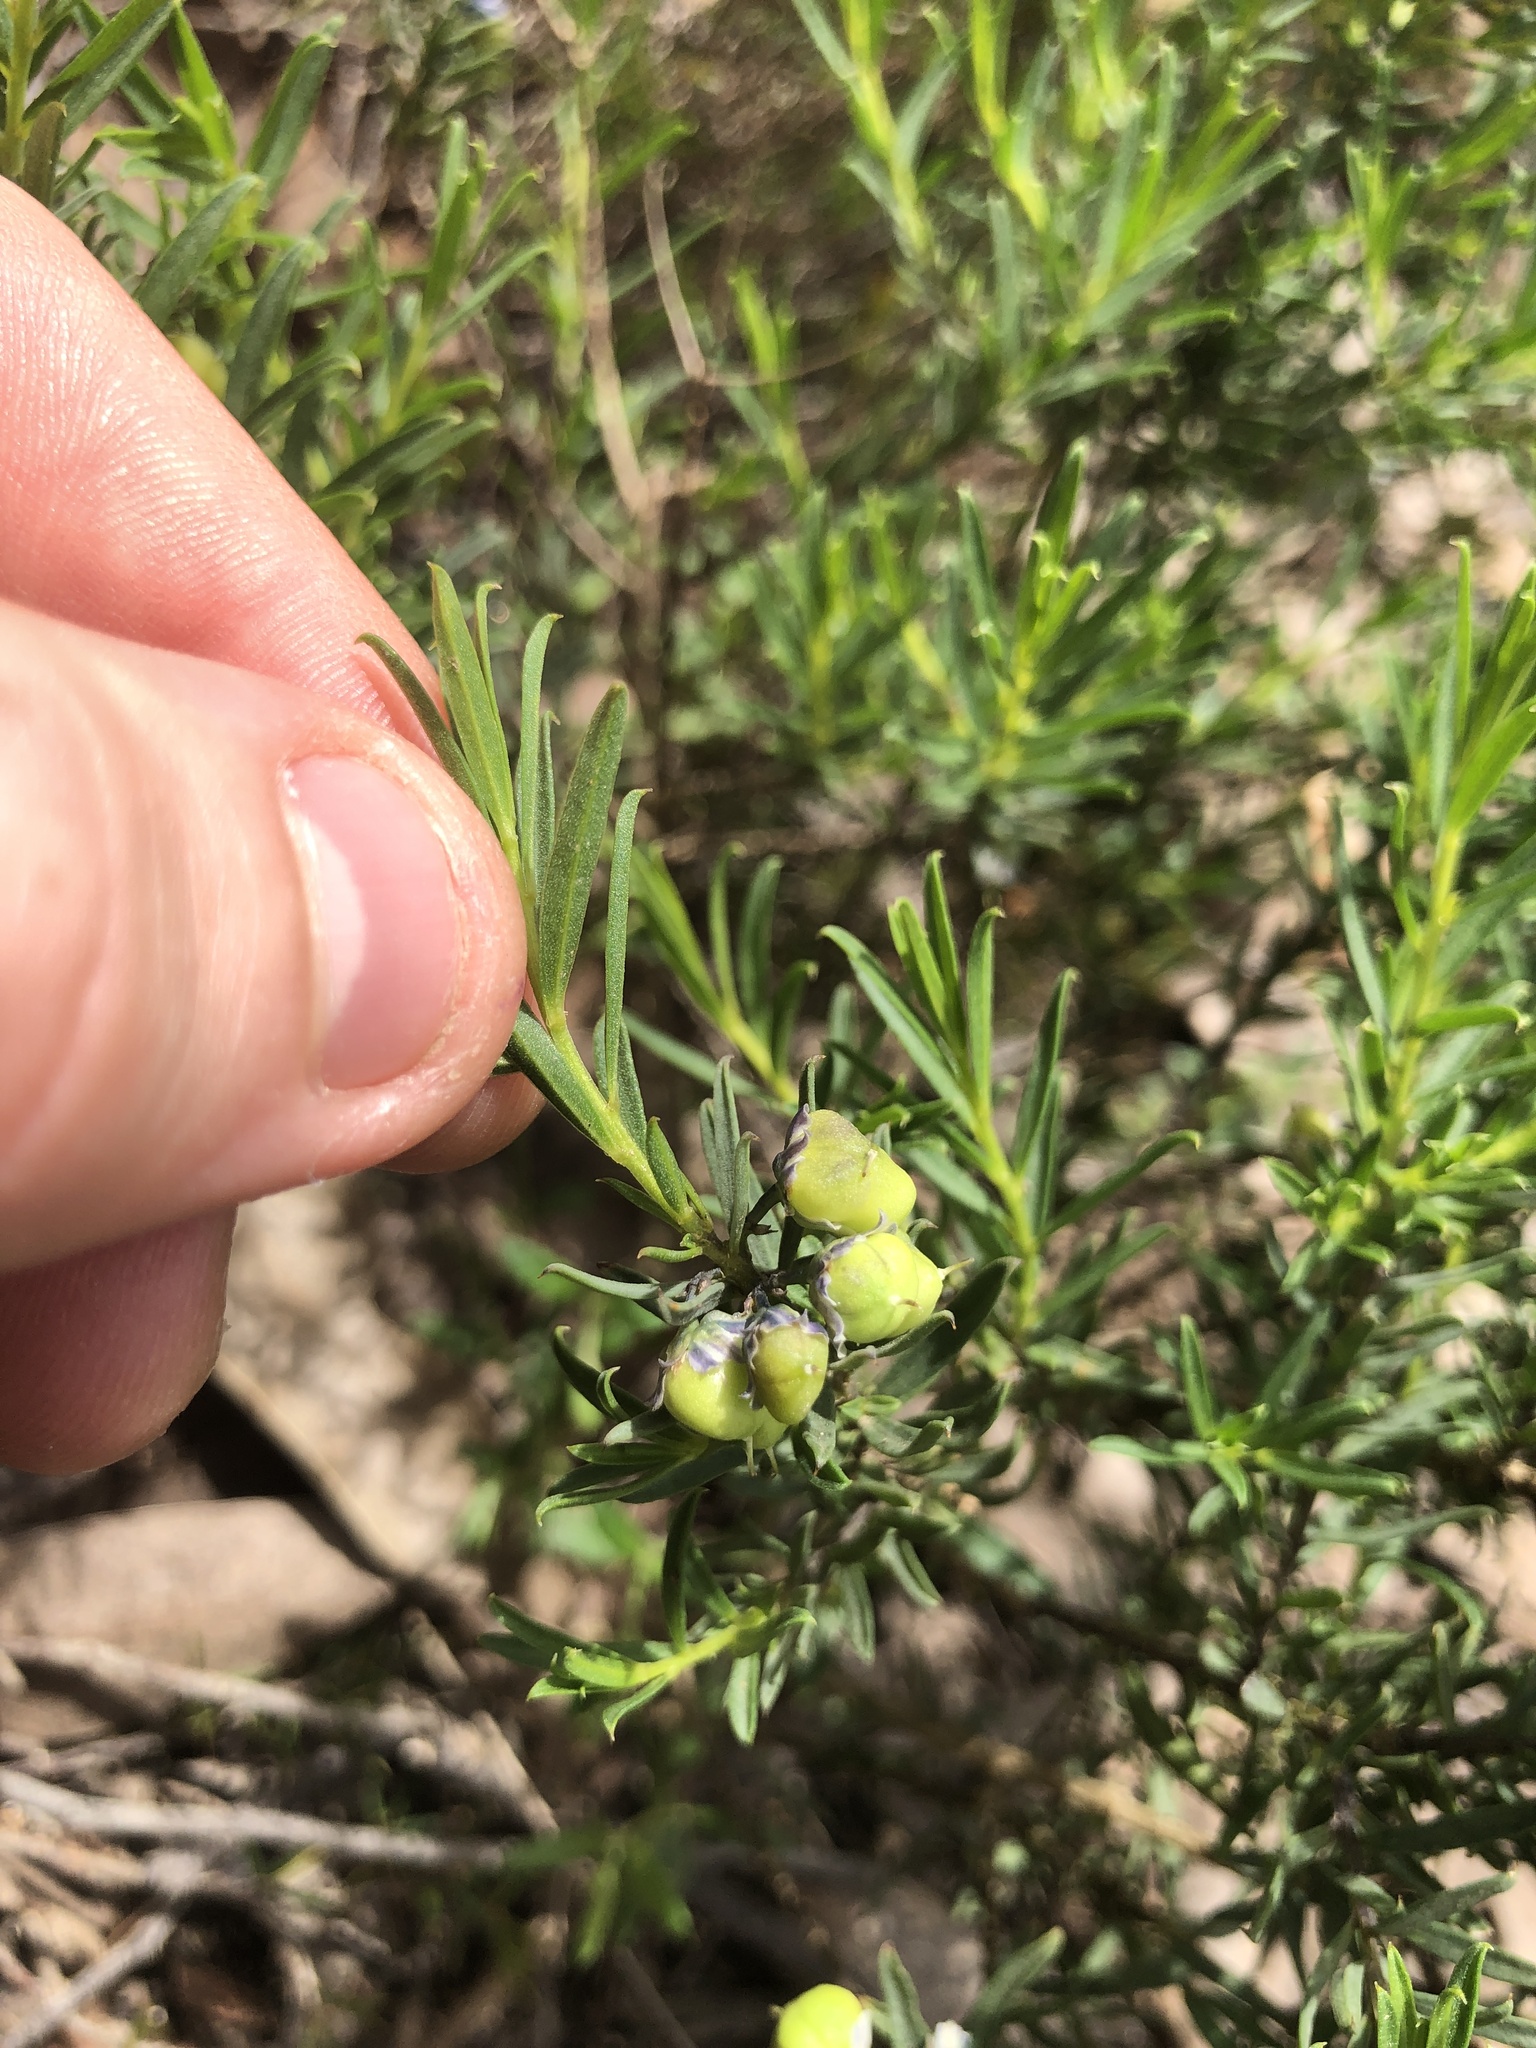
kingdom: Plantae
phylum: Tracheophyta
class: Magnoliopsida
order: Malpighiales
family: Violaceae
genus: Pigea
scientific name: Pigea floribunda
